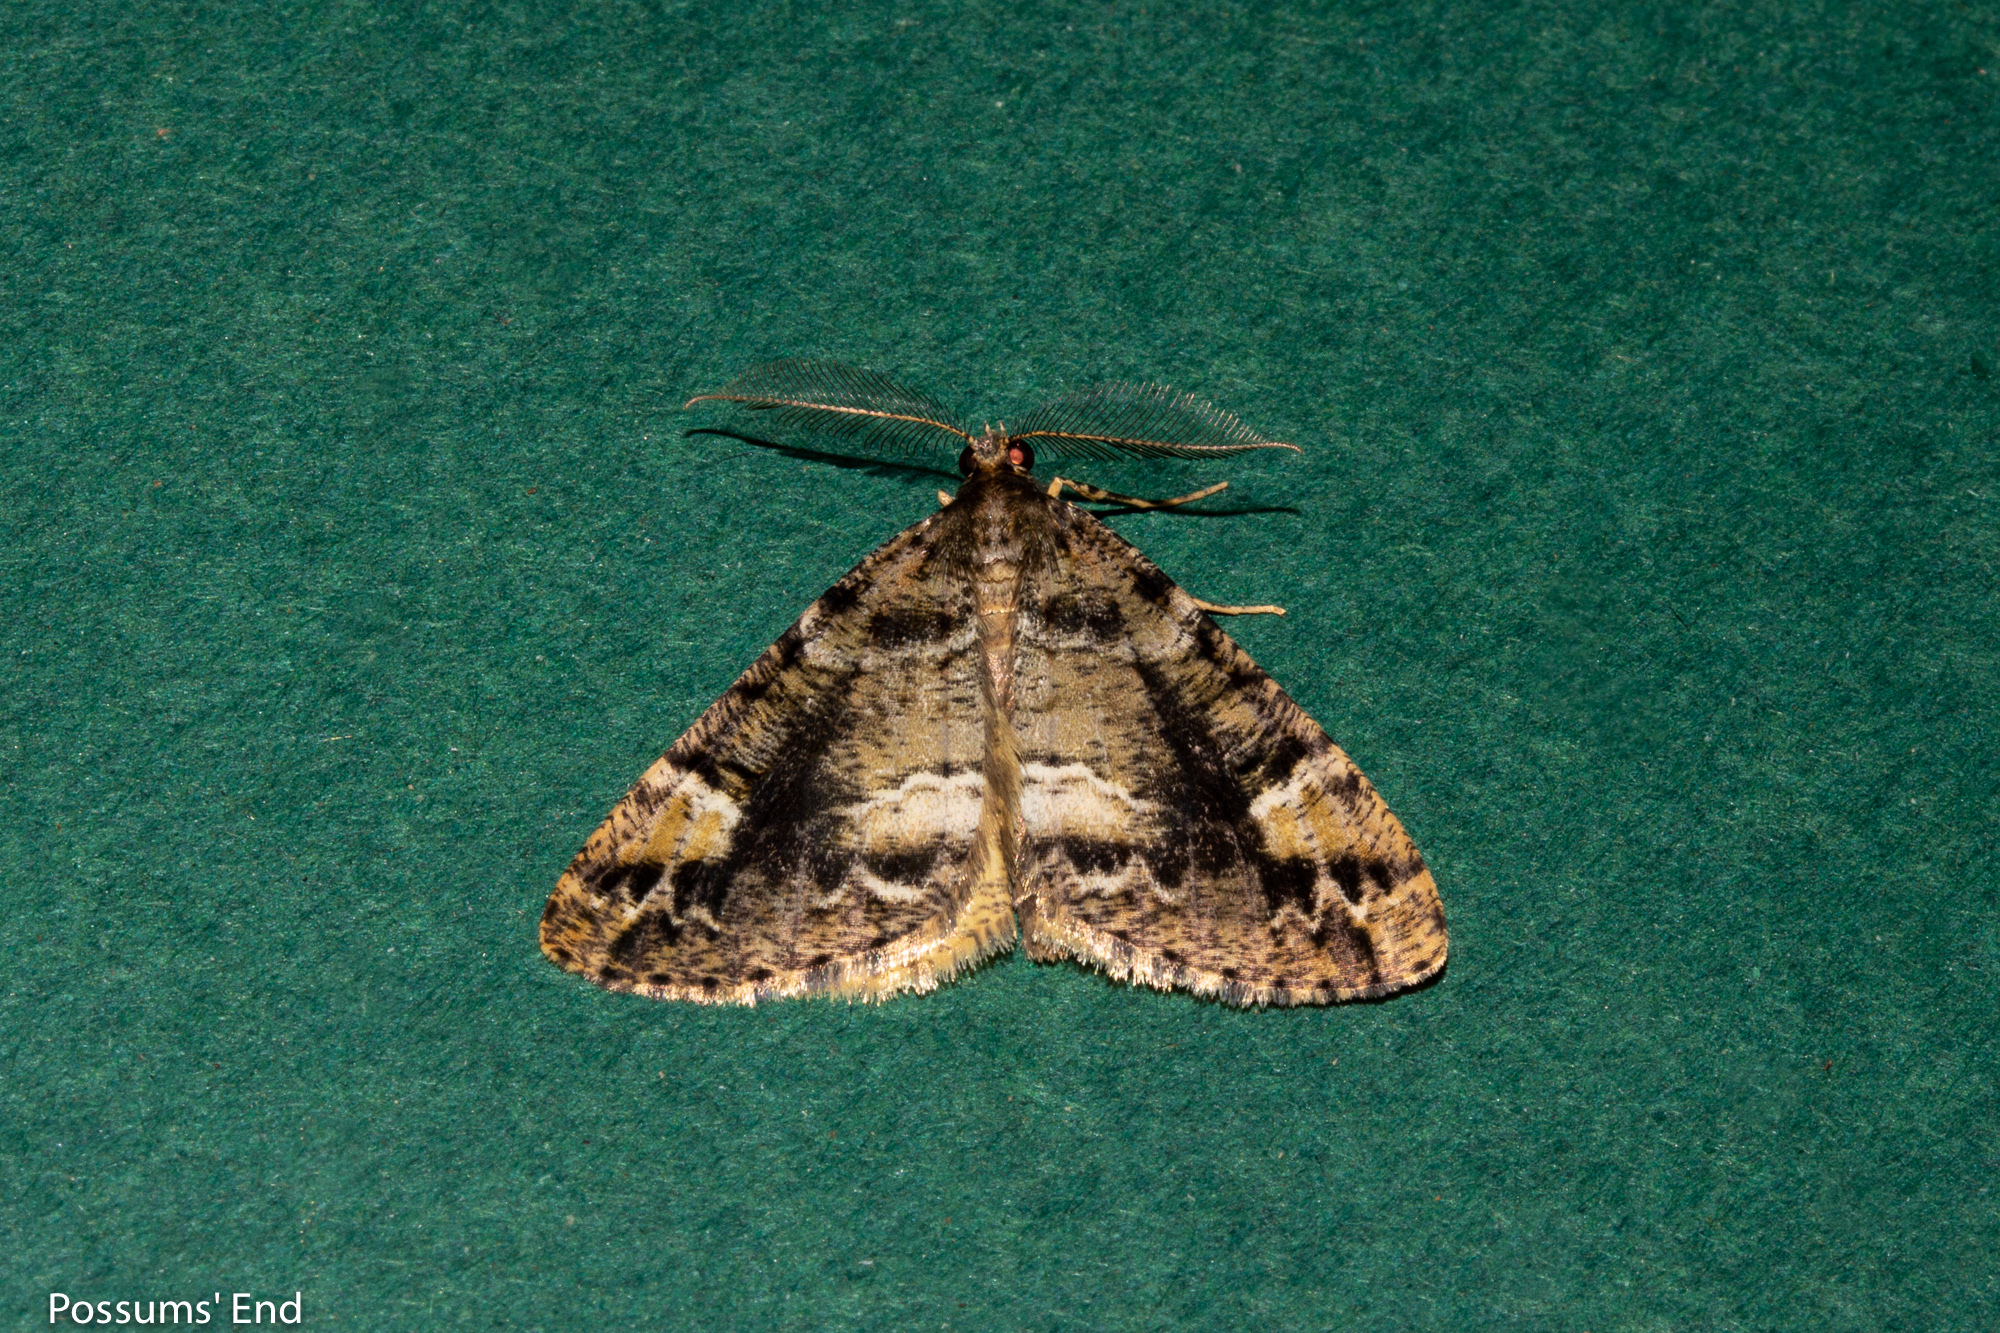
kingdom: Animalia
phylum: Arthropoda
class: Insecta
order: Lepidoptera
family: Geometridae
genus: Pseudocoremia
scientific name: Pseudocoremia productata
